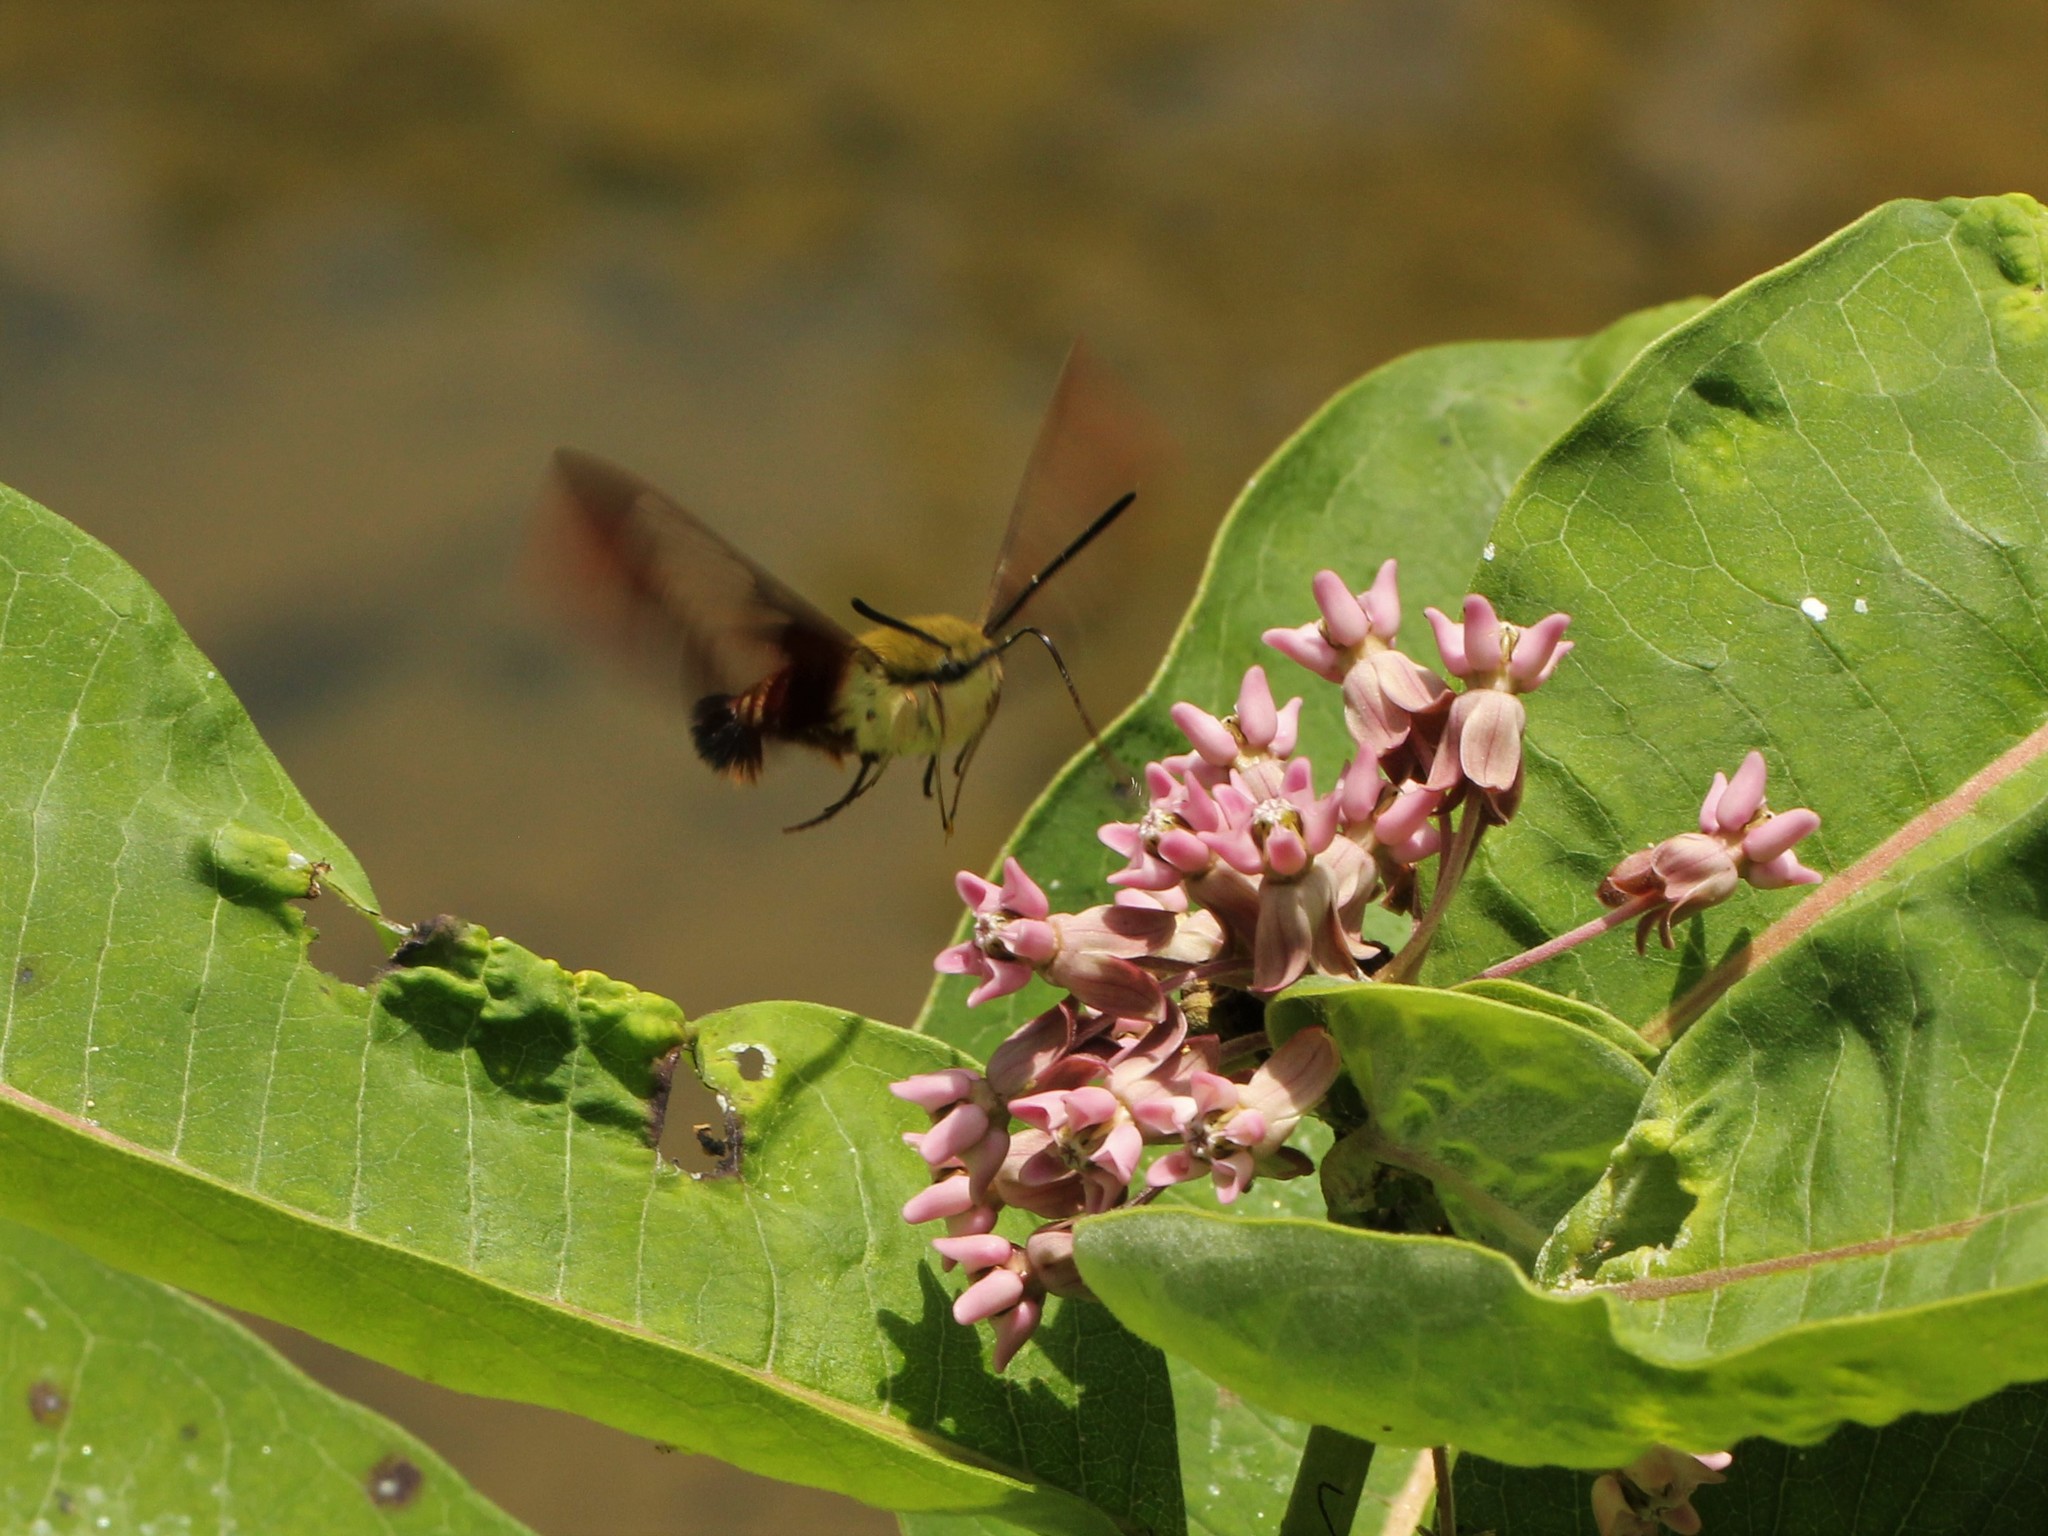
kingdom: Animalia
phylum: Arthropoda
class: Insecta
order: Lepidoptera
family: Sphingidae
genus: Hemaris
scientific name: Hemaris thysbe
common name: Common clear-wing
